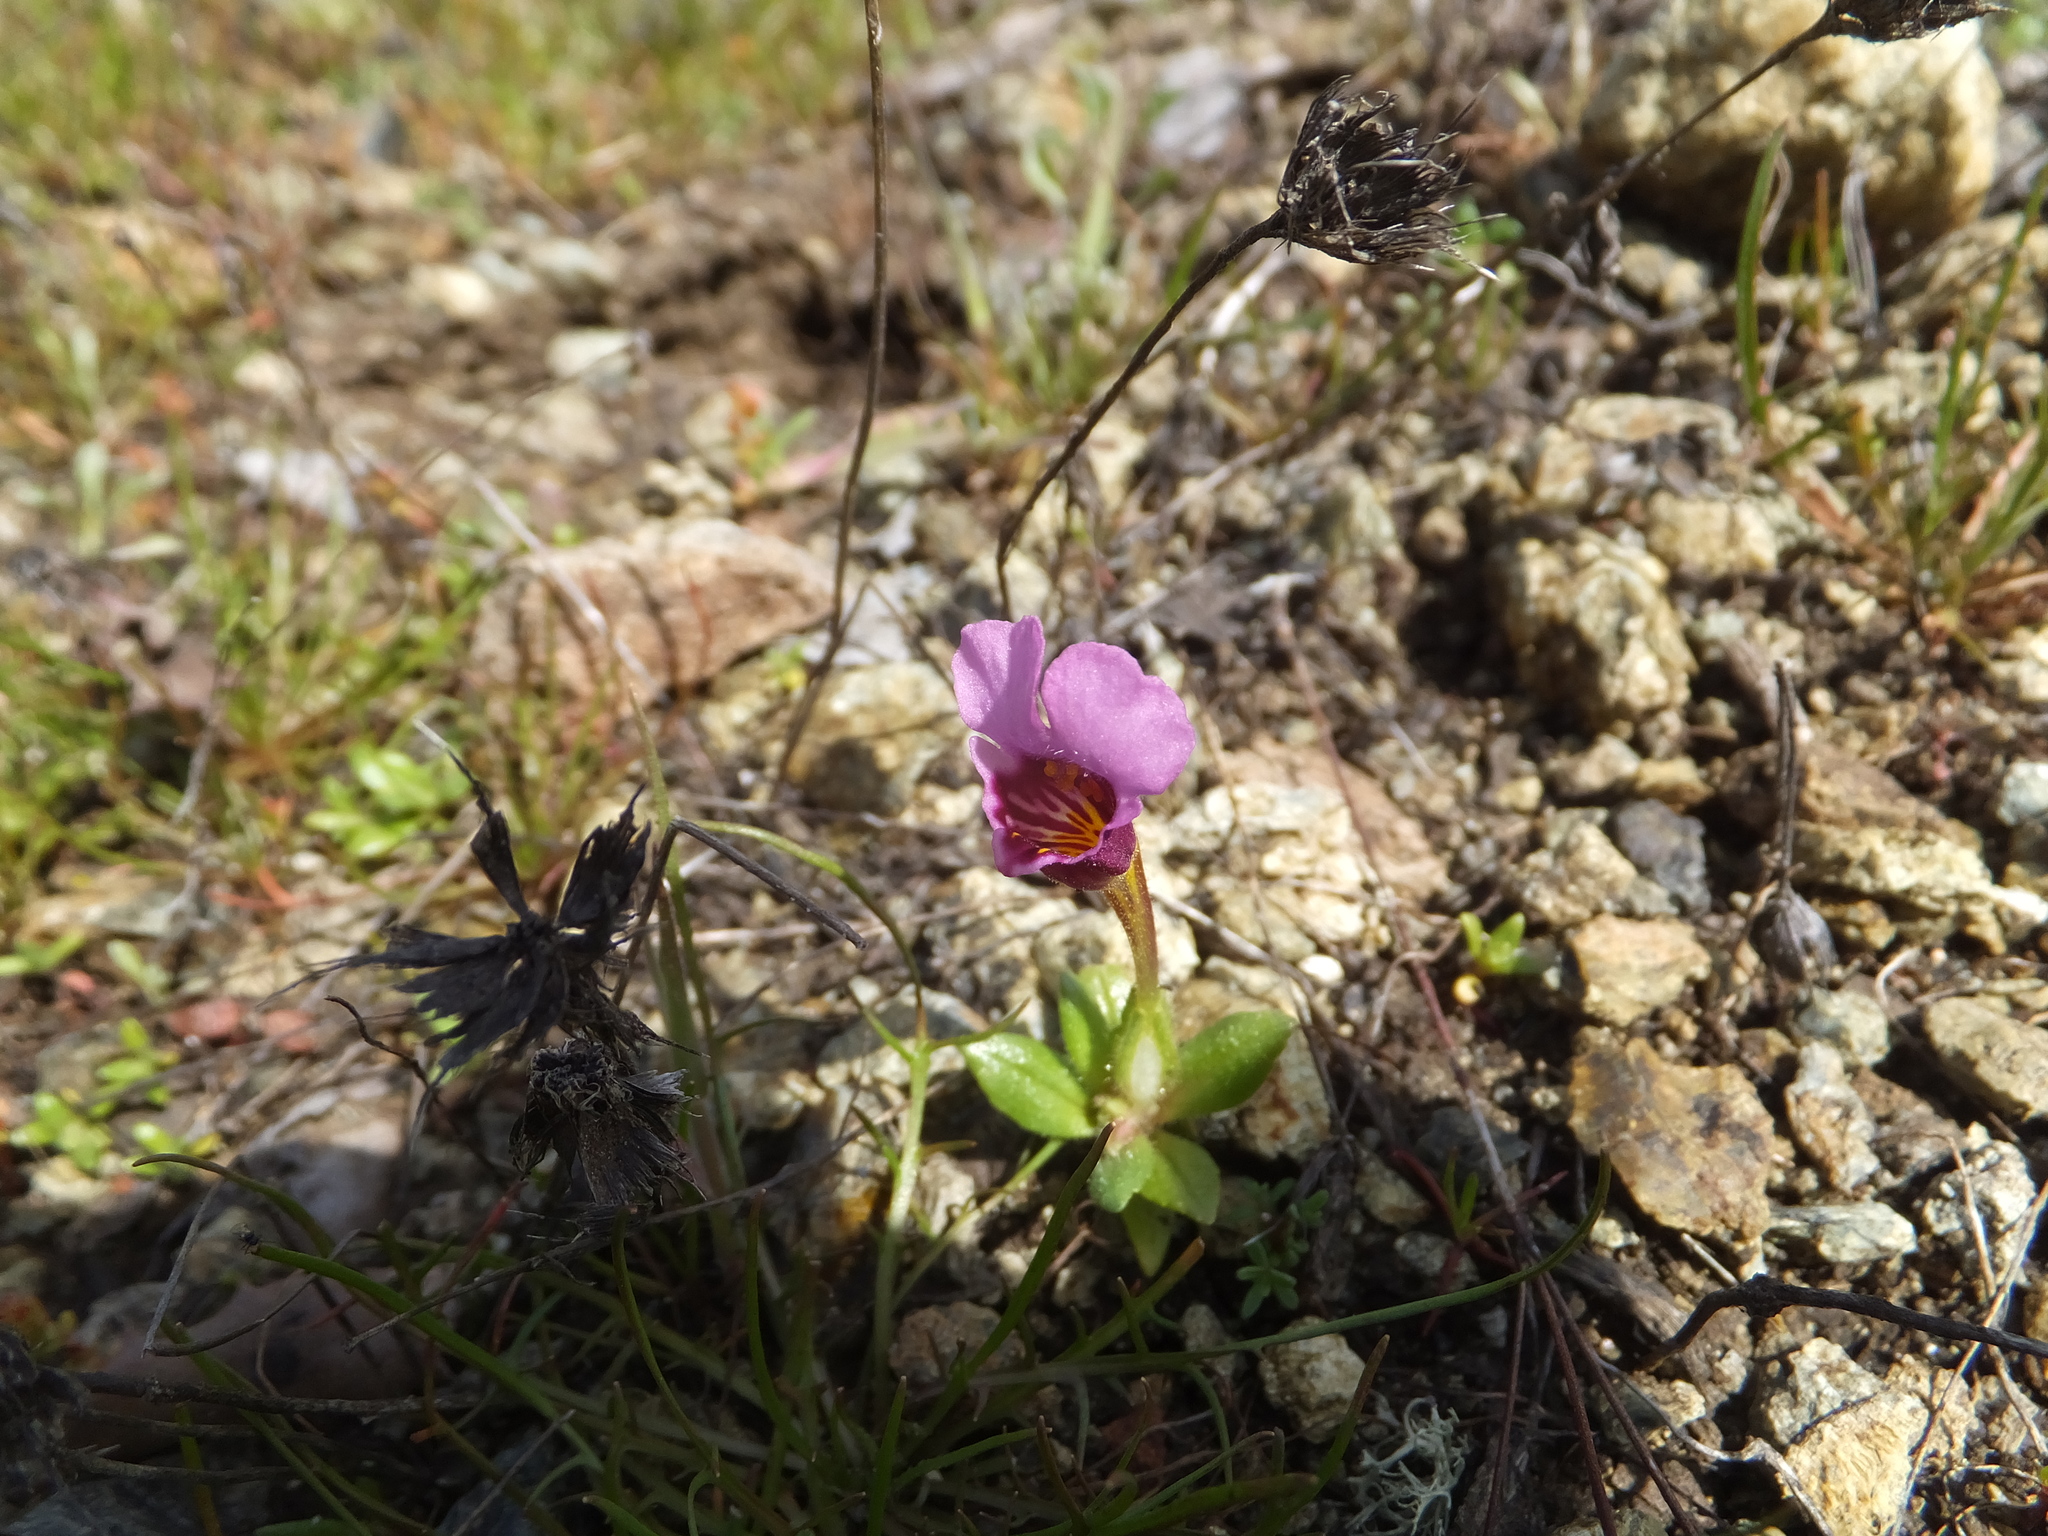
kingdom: Plantae
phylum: Tracheophyta
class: Magnoliopsida
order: Lamiales
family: Phrymaceae
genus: Diplacus
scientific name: Diplacus douglasii
